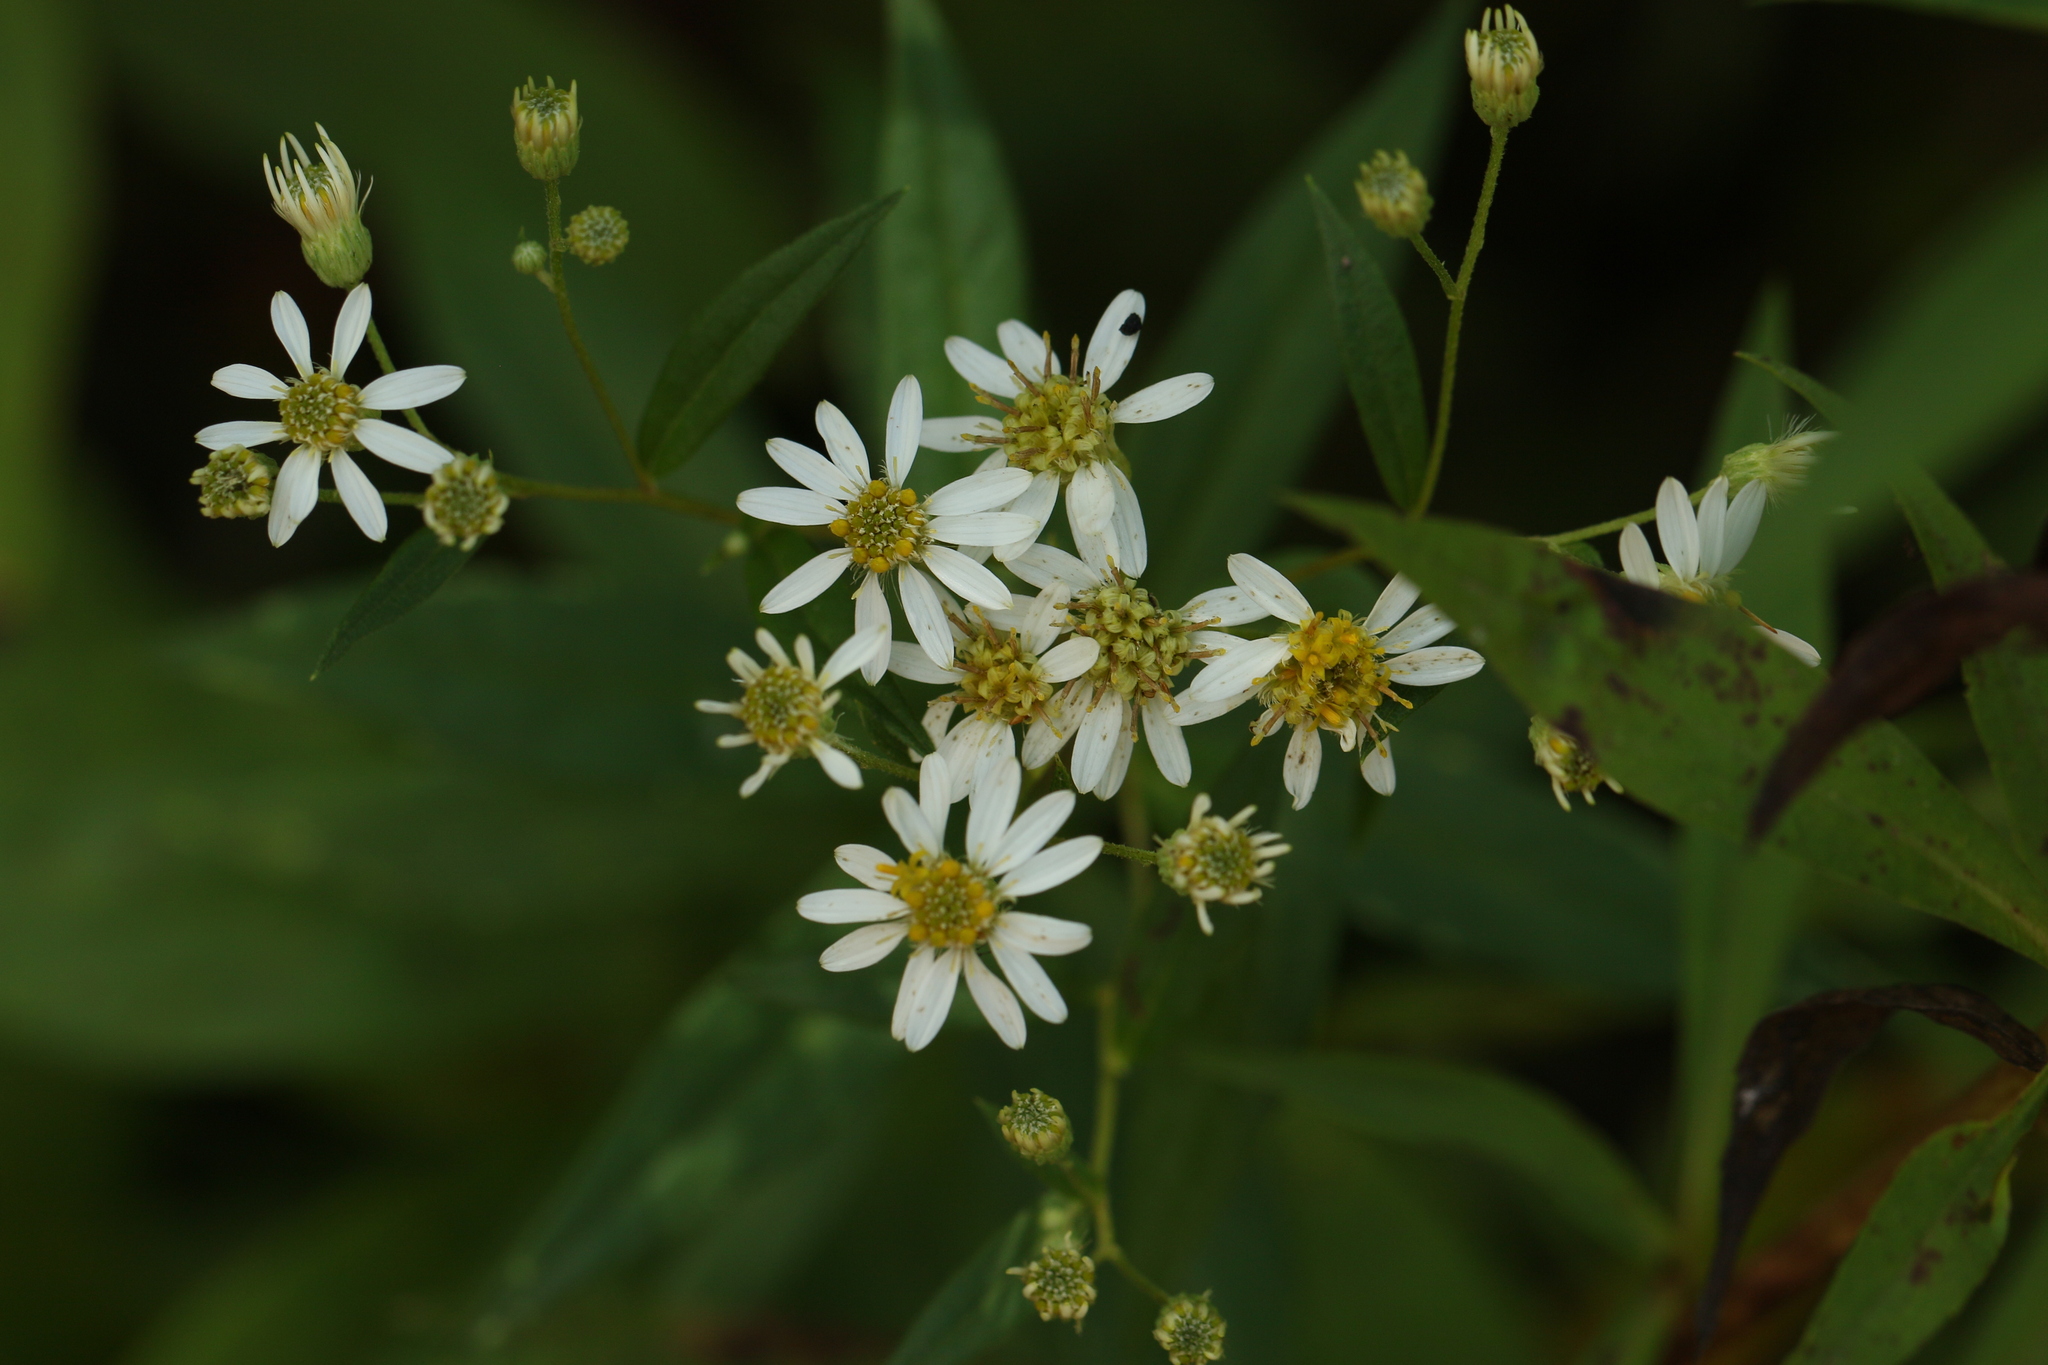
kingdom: Plantae
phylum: Tracheophyta
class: Magnoliopsida
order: Asterales
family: Asteraceae
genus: Doellingeria
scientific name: Doellingeria umbellata
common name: Flat-top white aster
